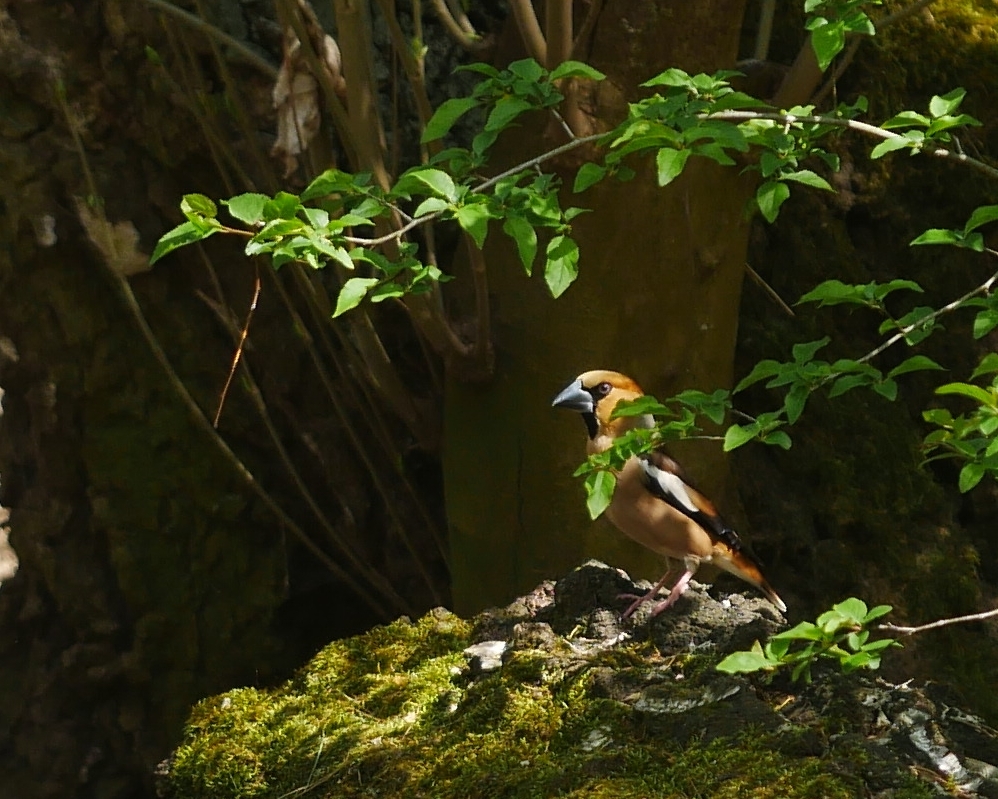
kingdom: Animalia
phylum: Chordata
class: Aves
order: Passeriformes
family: Fringillidae
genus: Coccothraustes
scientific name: Coccothraustes coccothraustes
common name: Hawfinch
